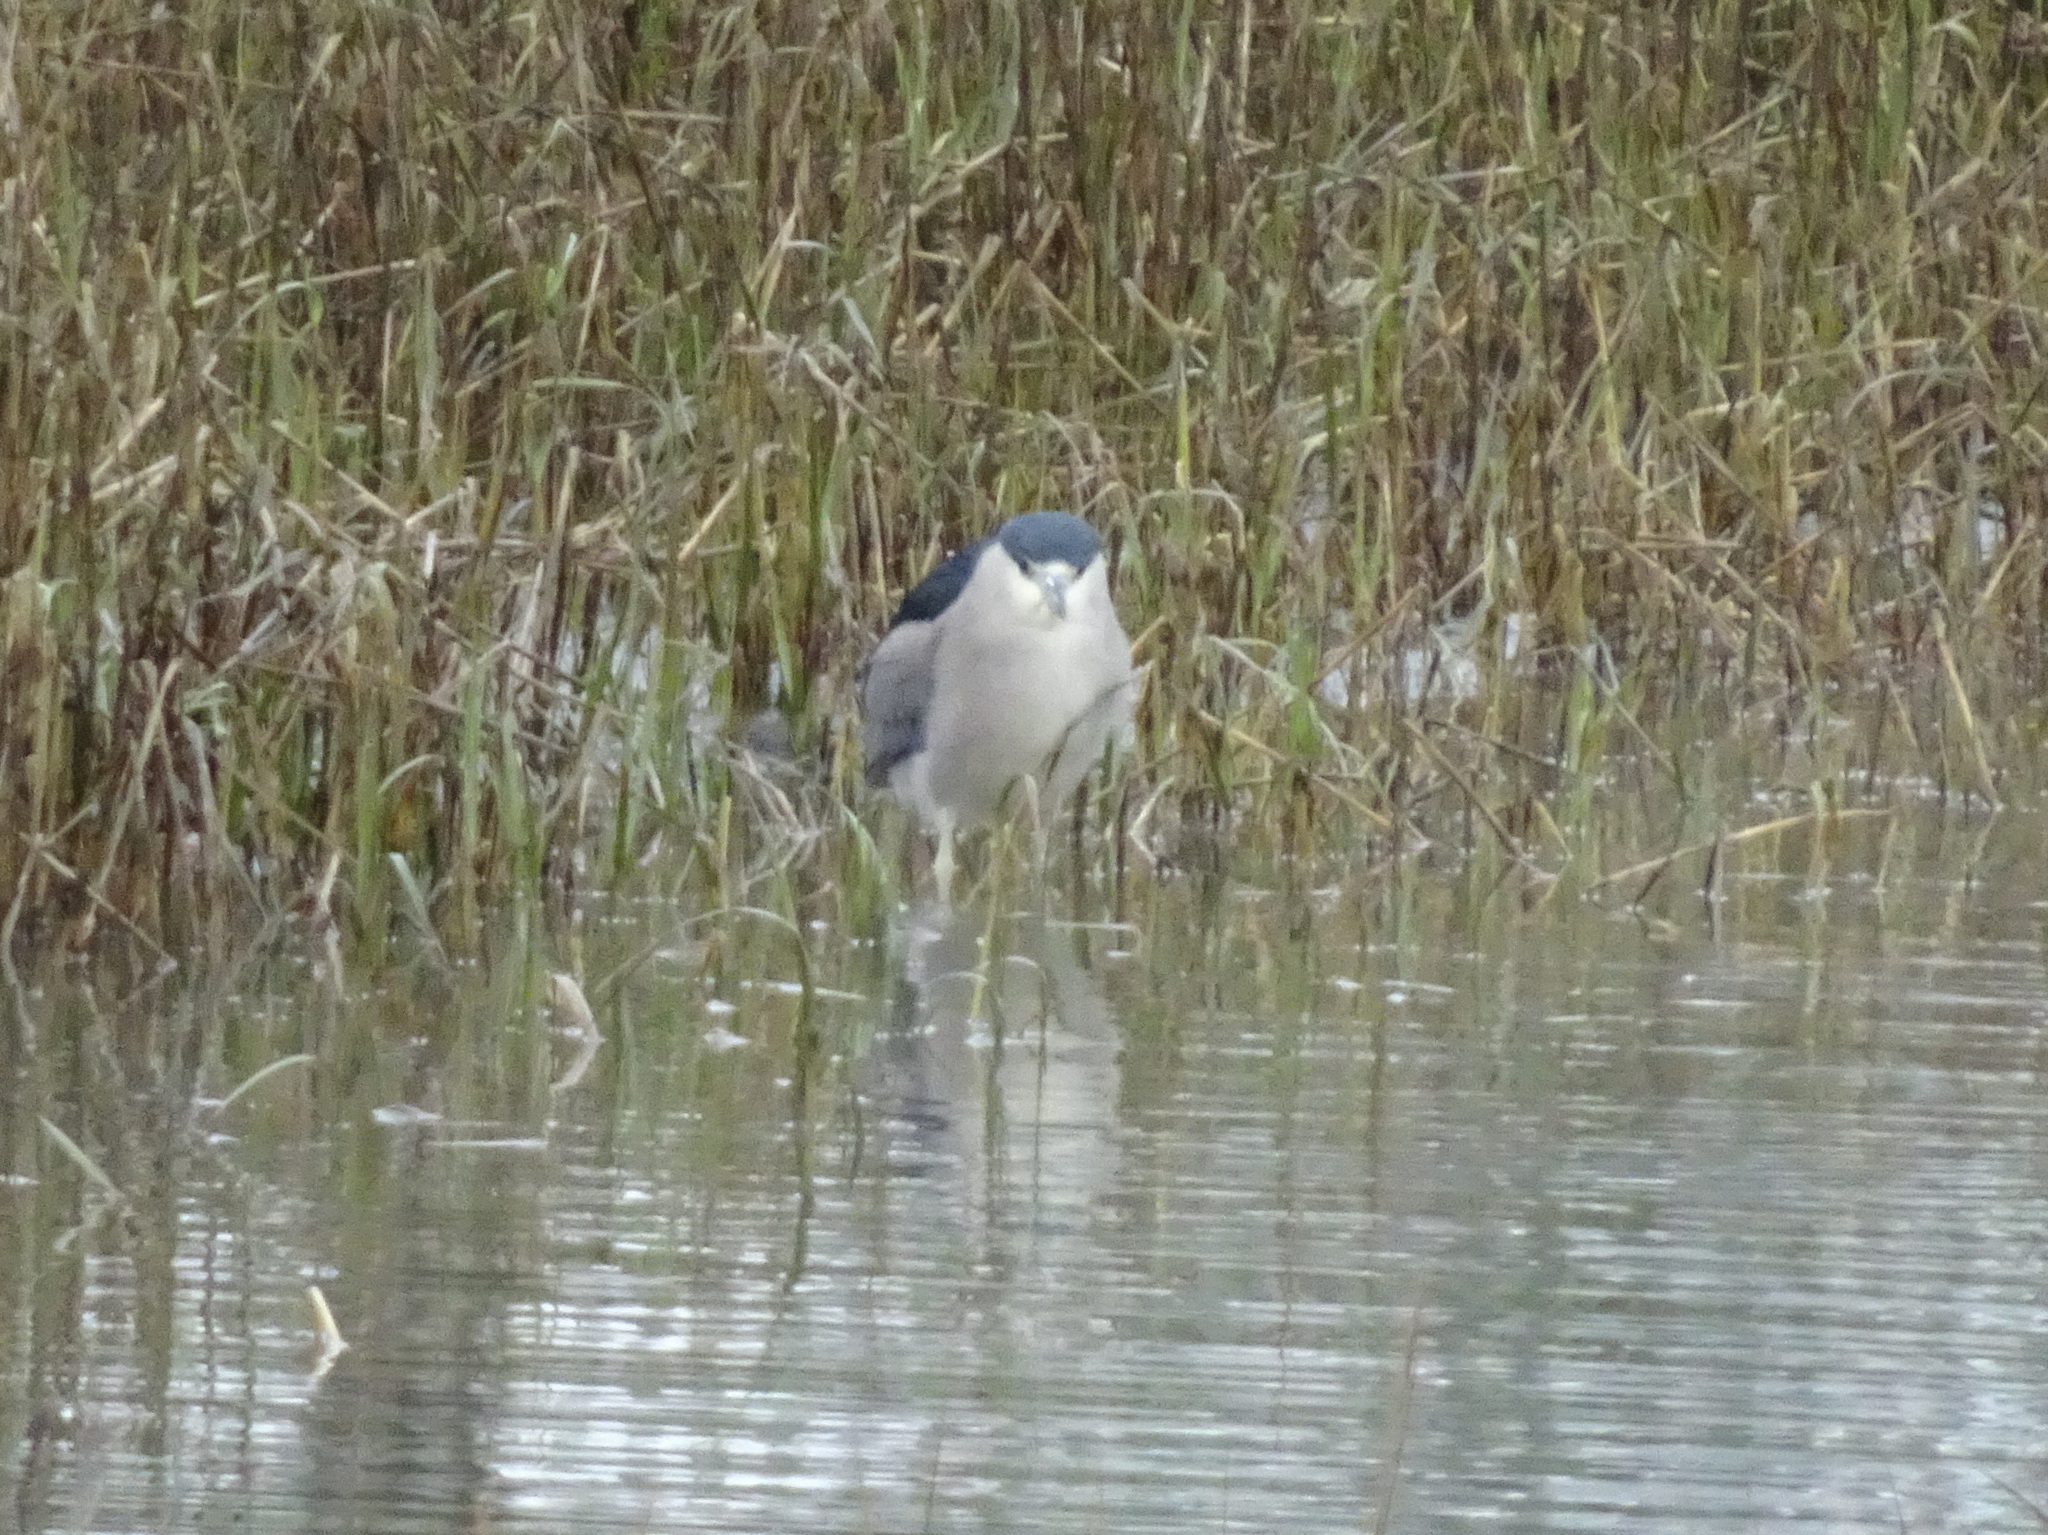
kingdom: Animalia
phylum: Chordata
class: Aves
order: Pelecaniformes
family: Ardeidae
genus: Nycticorax
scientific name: Nycticorax nycticorax
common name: Black-crowned night heron
